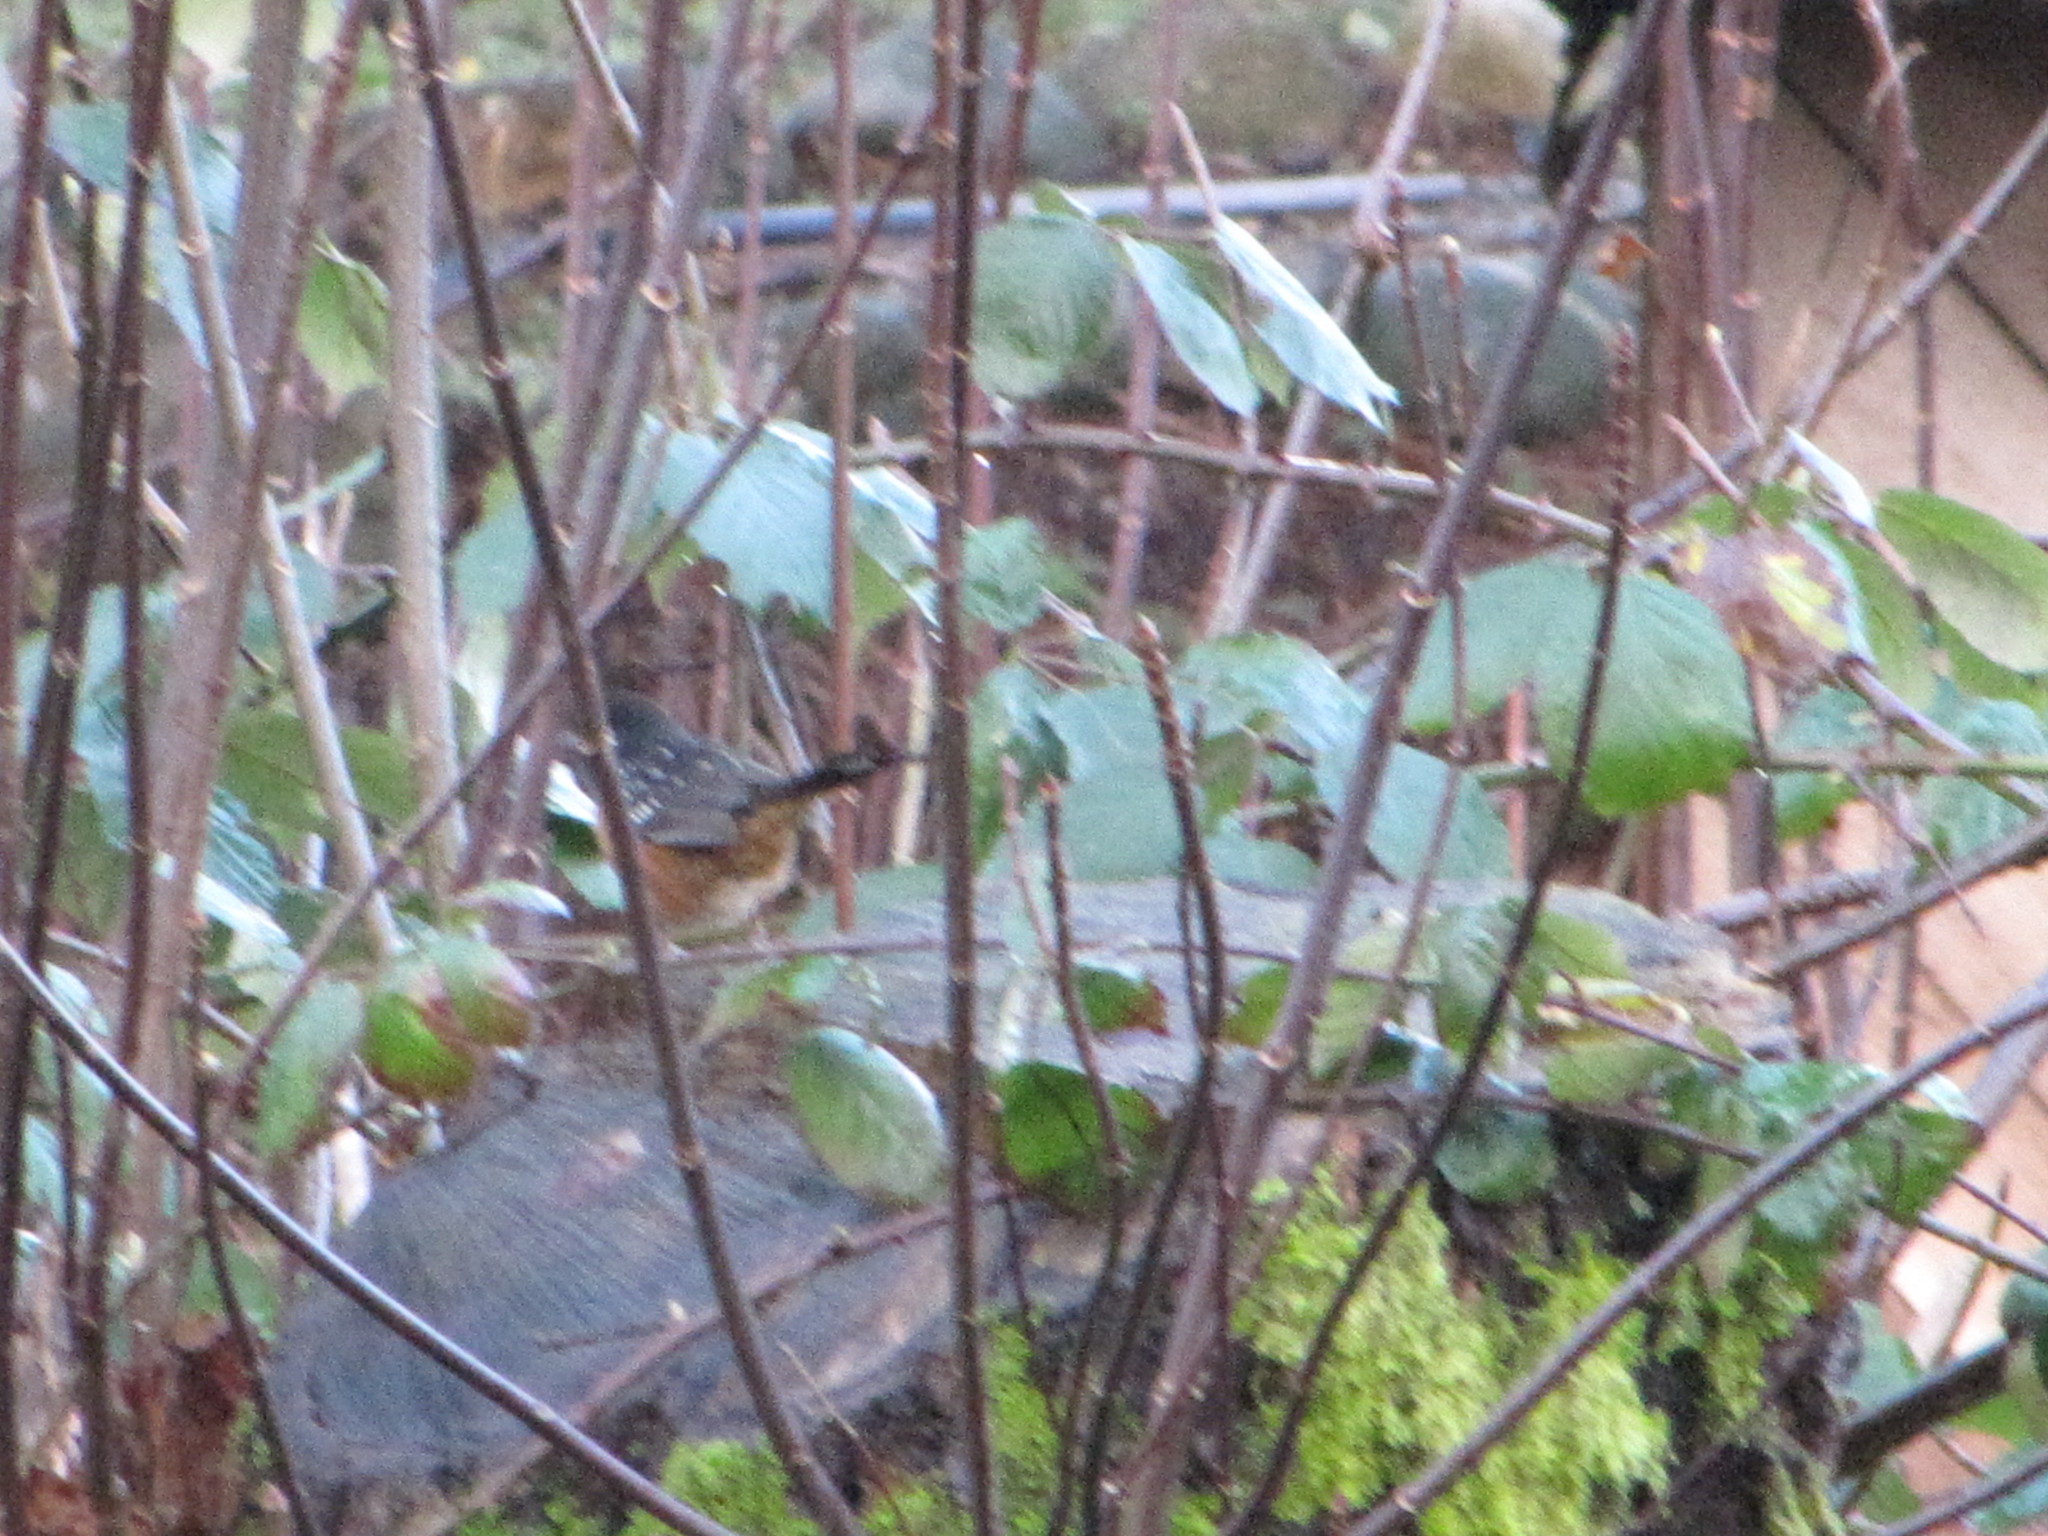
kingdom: Animalia
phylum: Chordata
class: Aves
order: Passeriformes
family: Passerellidae
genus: Pipilo
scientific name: Pipilo maculatus
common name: Spotted towhee
